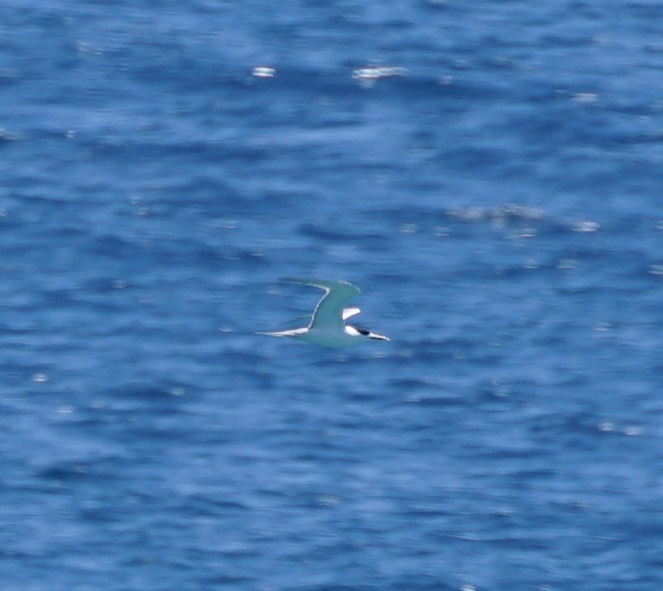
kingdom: Animalia
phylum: Chordata
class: Aves
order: Charadriiformes
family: Laridae
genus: Thalasseus
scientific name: Thalasseus bergii
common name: Greater crested tern
